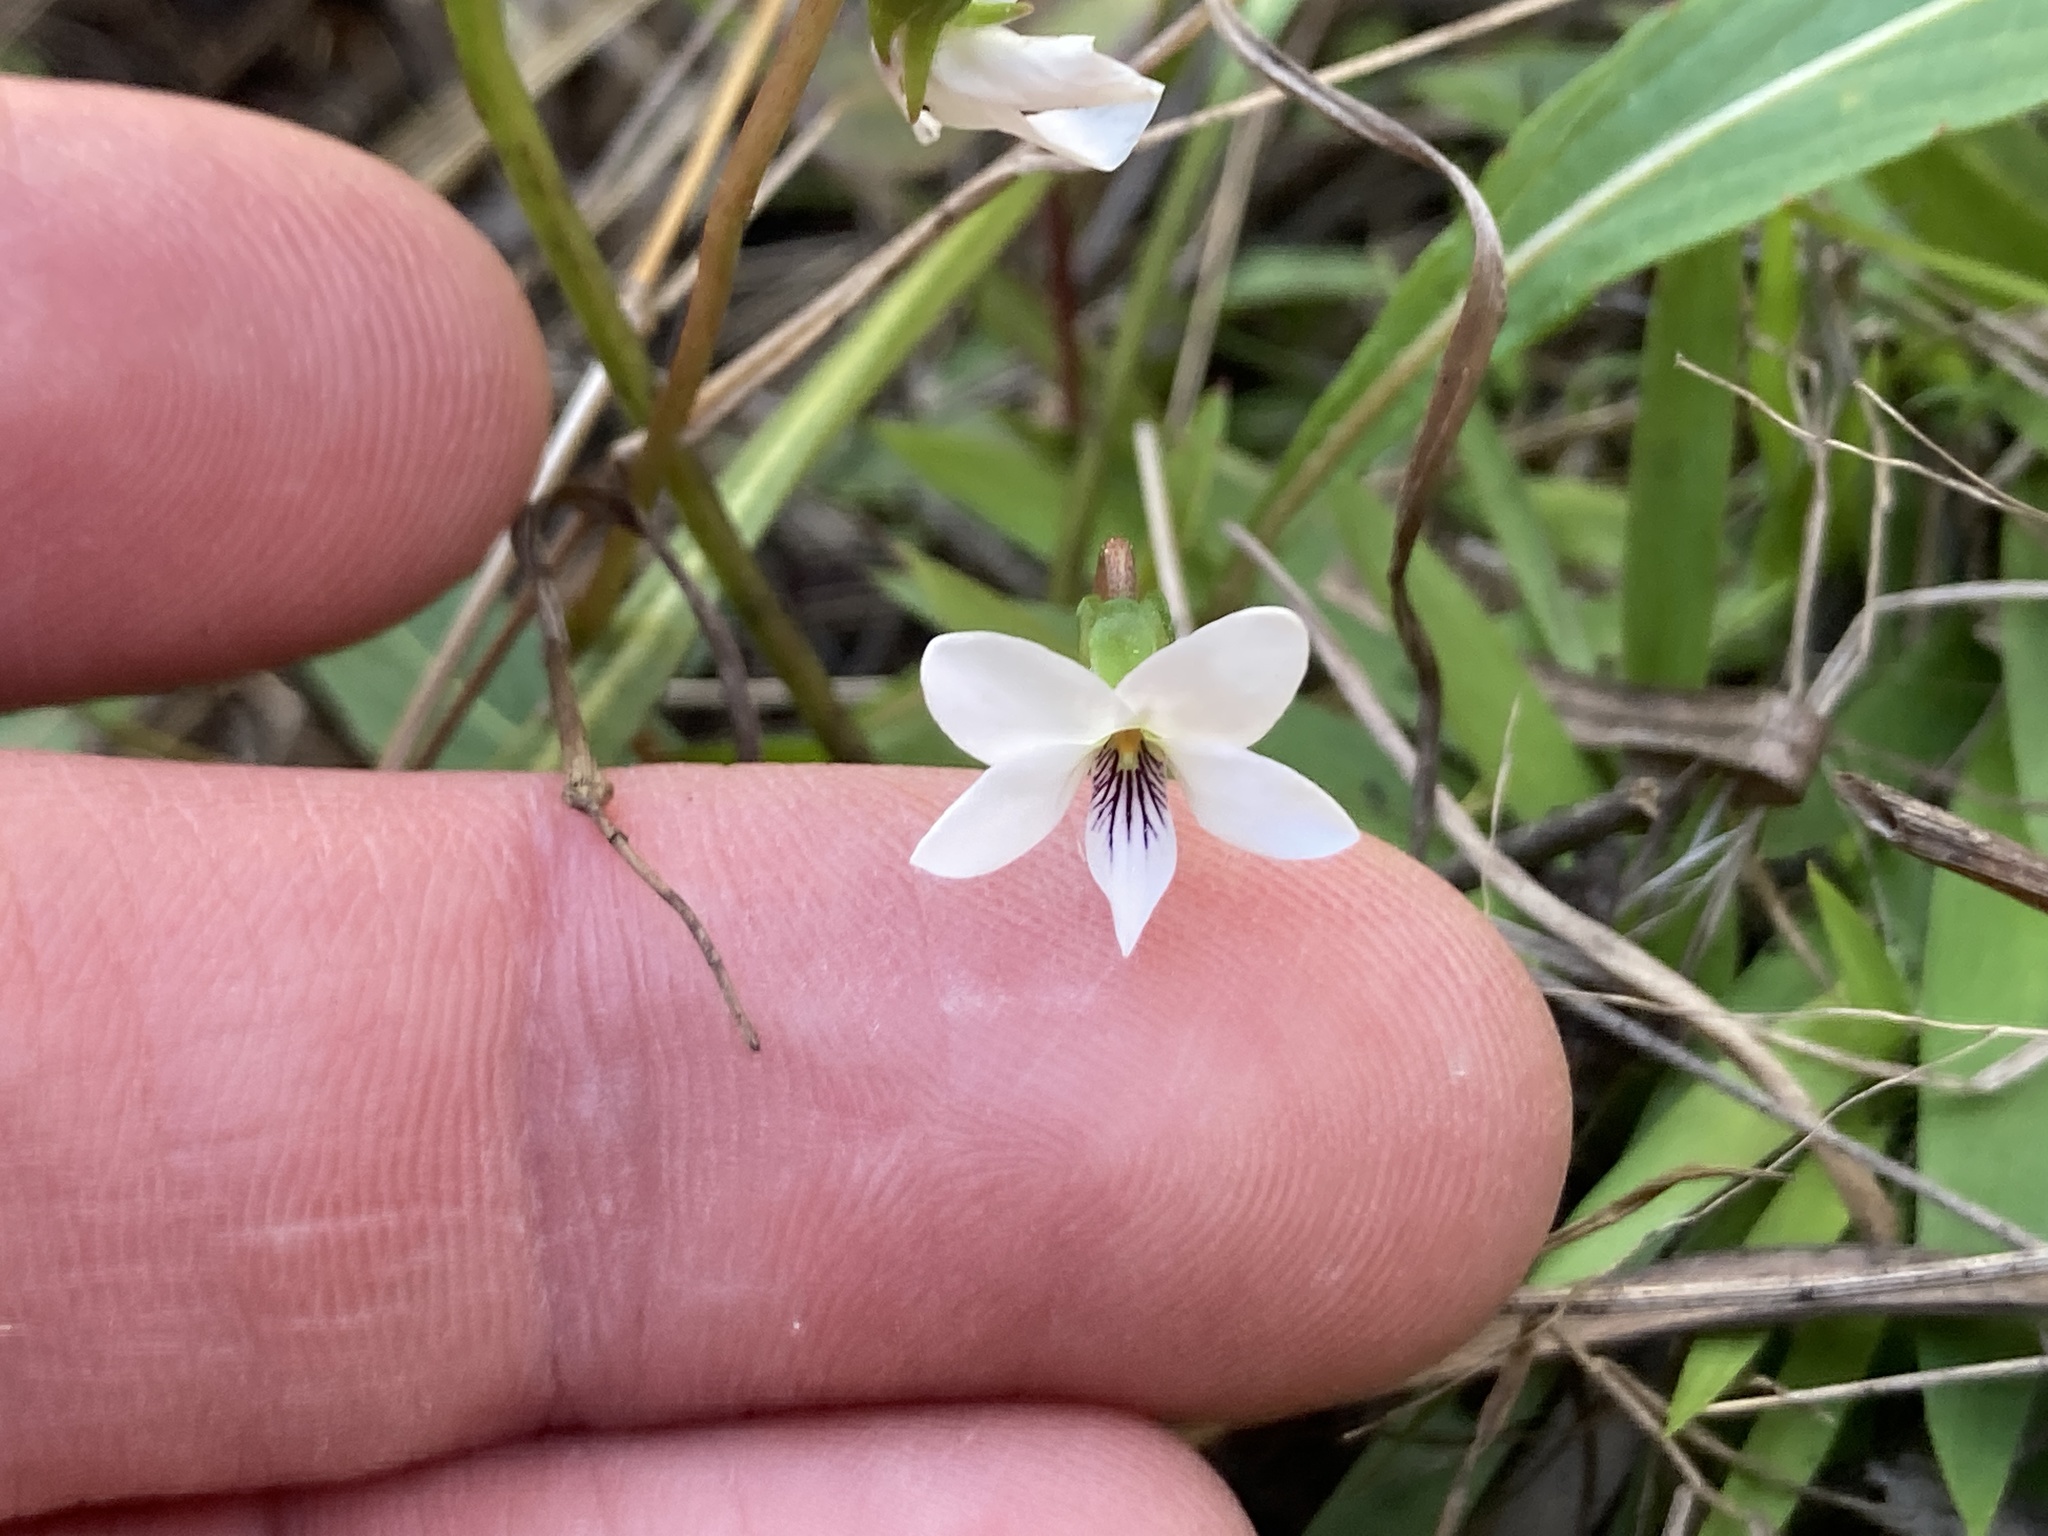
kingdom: Plantae
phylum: Tracheophyta
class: Magnoliopsida
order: Malpighiales
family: Violaceae
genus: Viola
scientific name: Viola lanceolata
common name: Bog white violet
